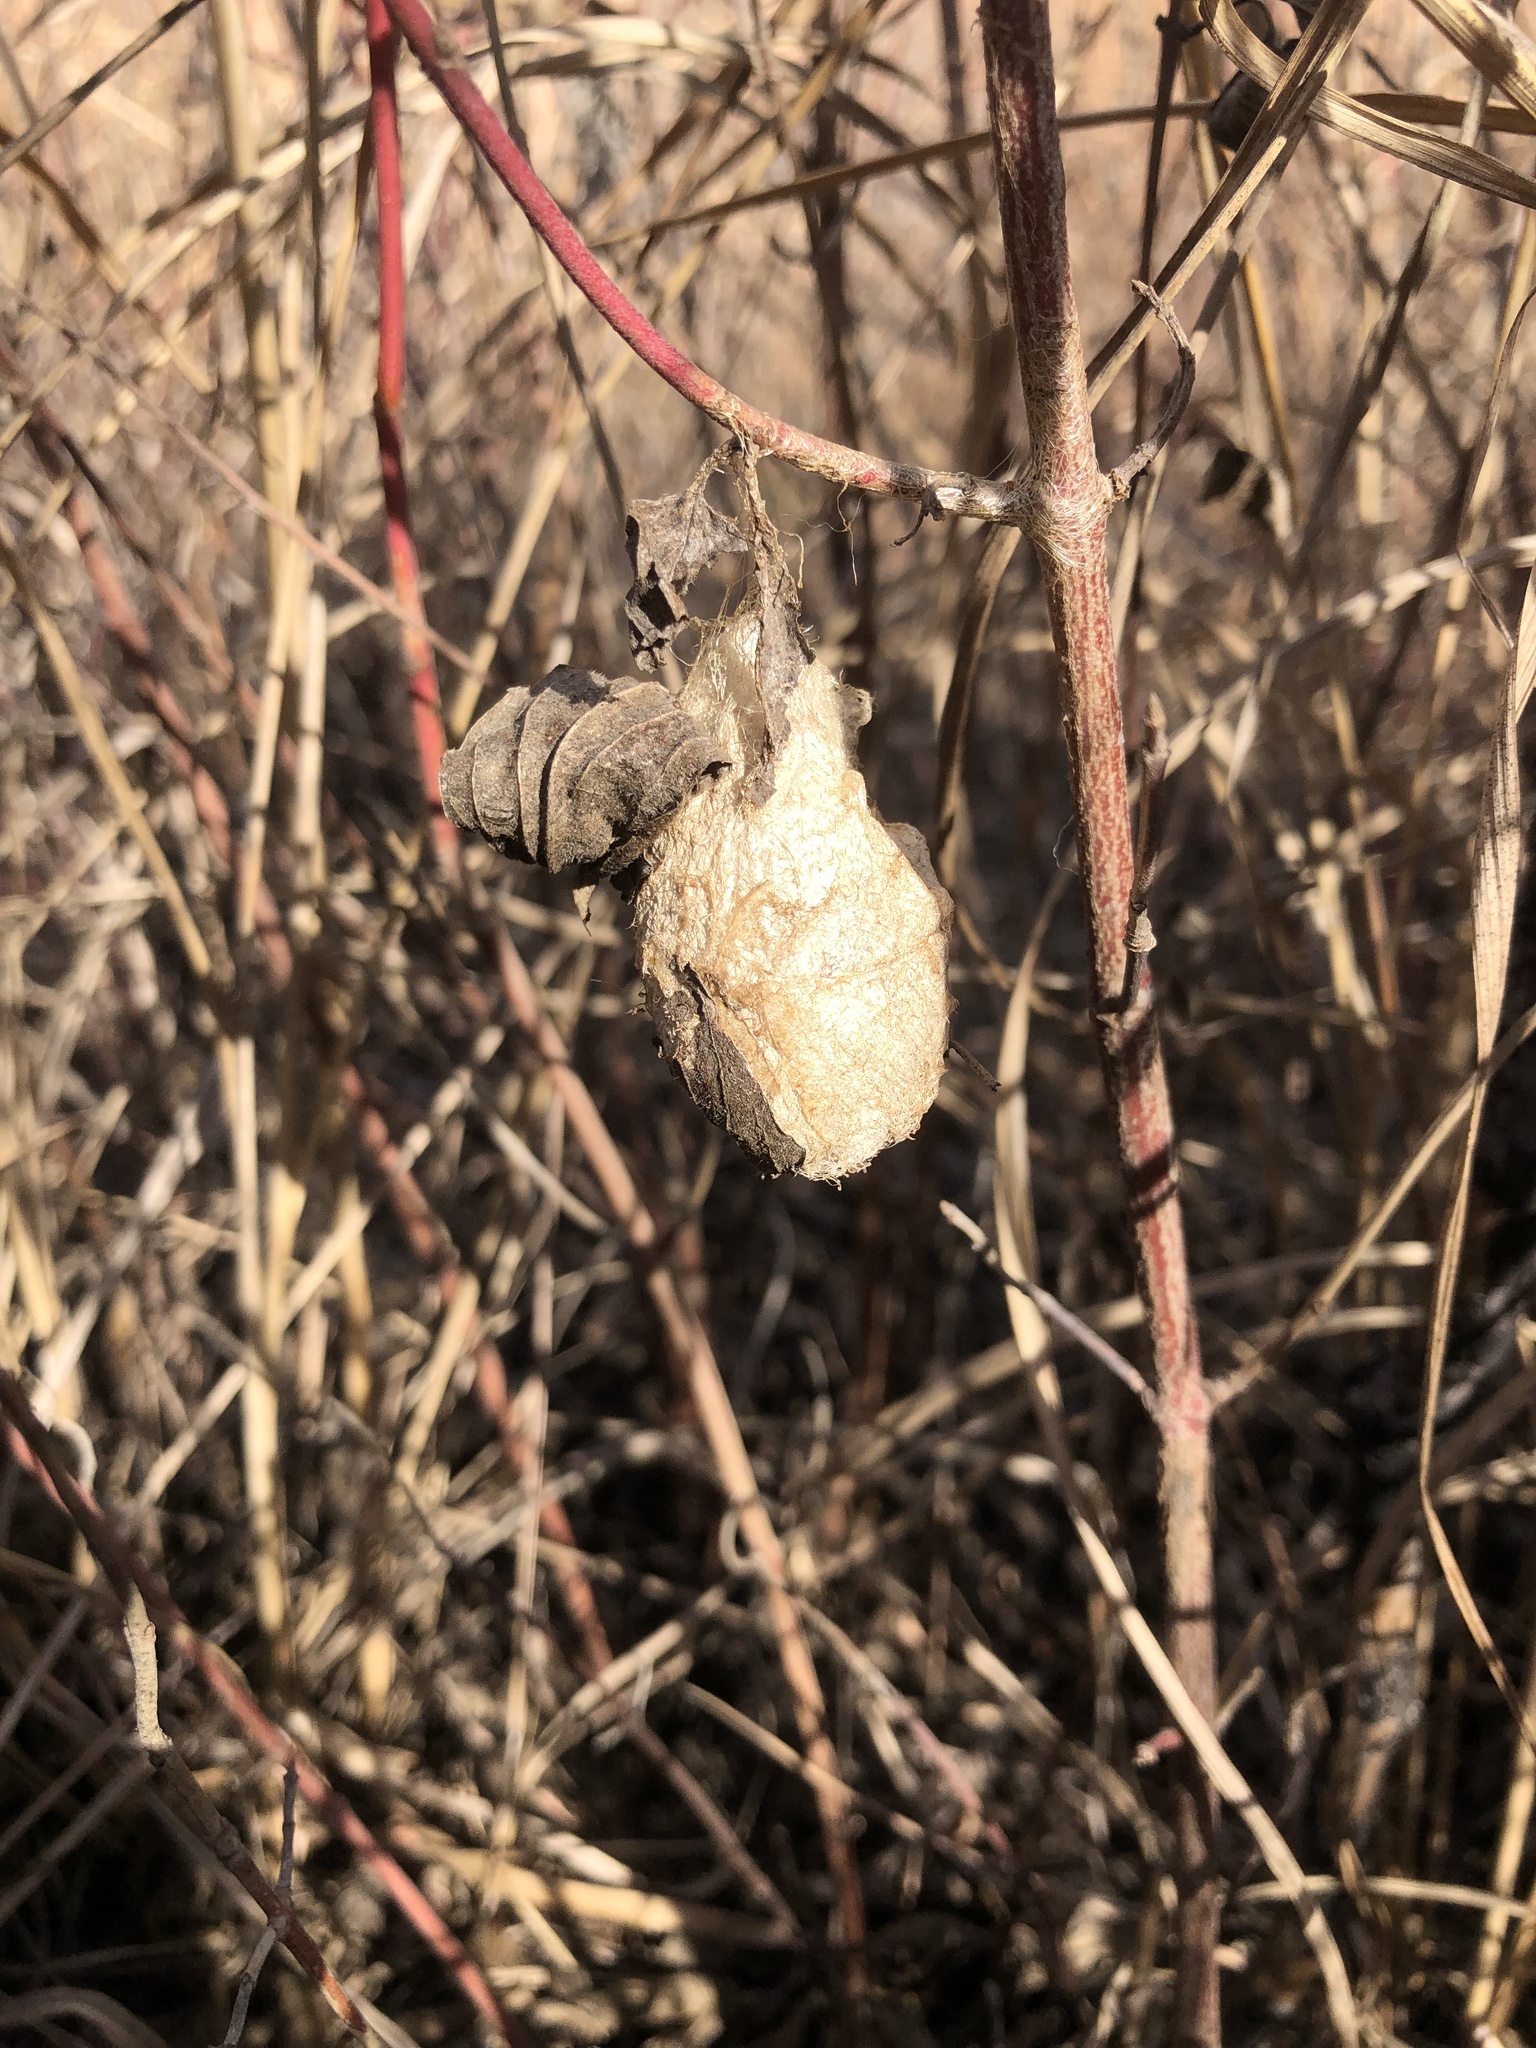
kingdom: Animalia
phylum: Arthropoda
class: Insecta
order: Lepidoptera
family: Saturniidae
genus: Antheraea
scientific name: Antheraea polyphemus
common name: Polyphemus moth
